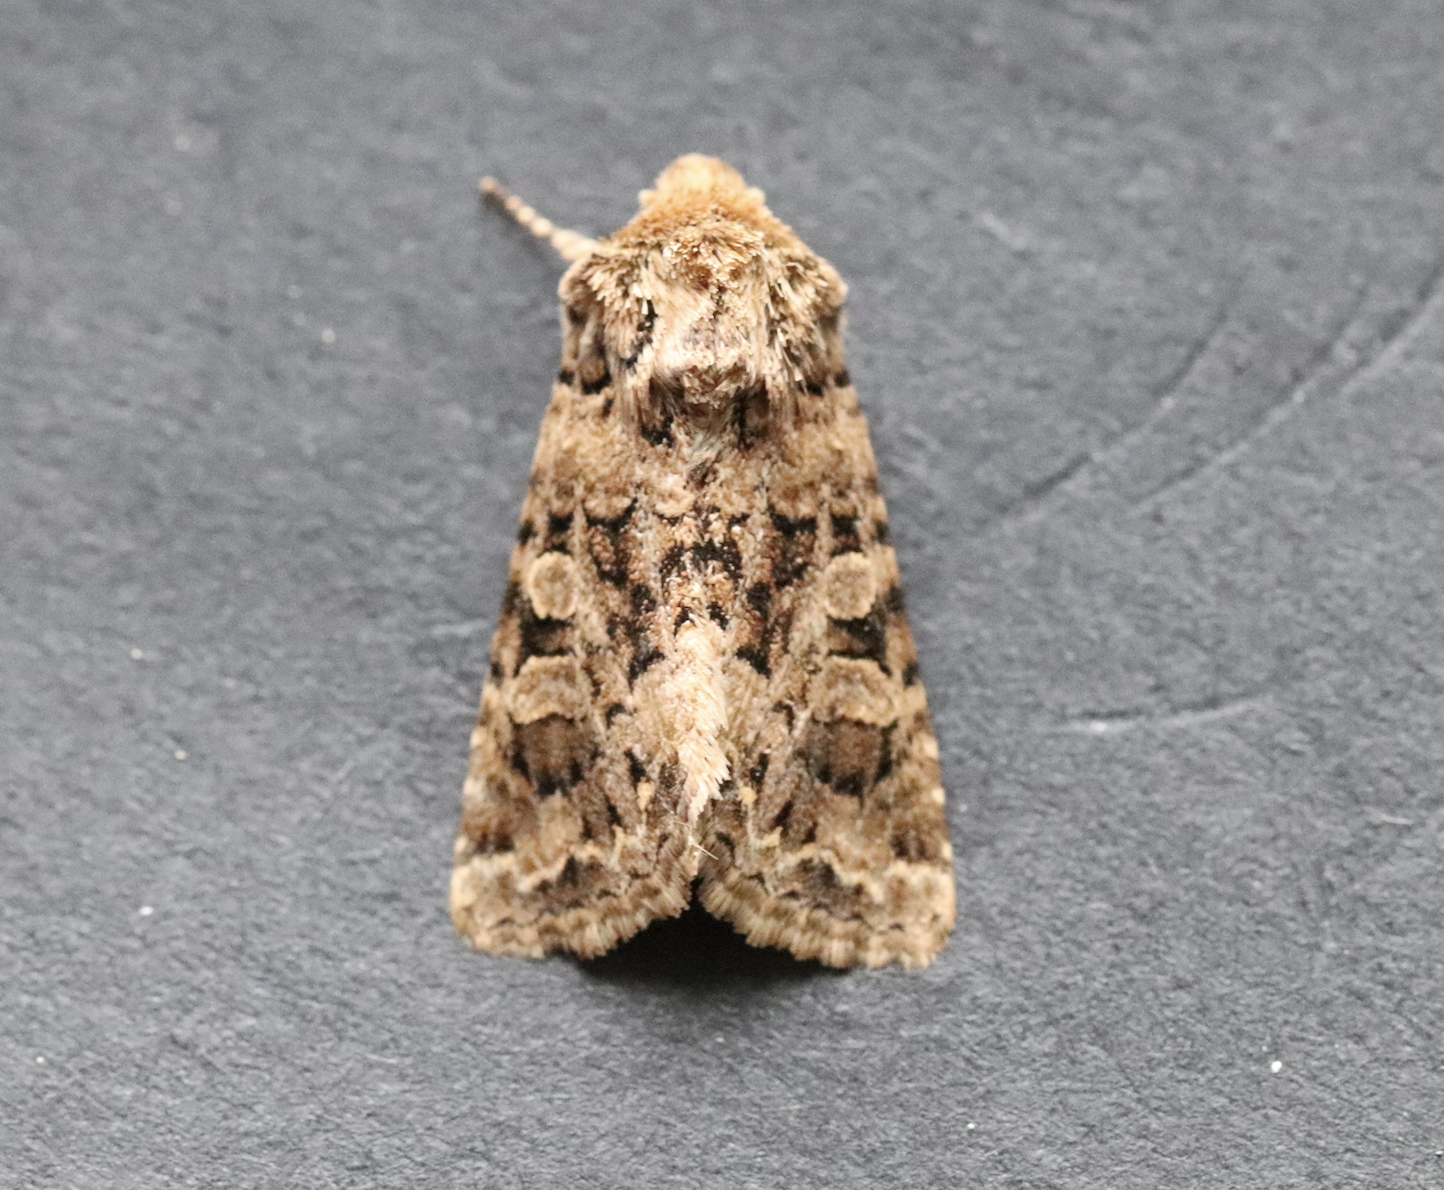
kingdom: Animalia
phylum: Arthropoda
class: Insecta
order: Lepidoptera
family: Noctuidae
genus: Hadena
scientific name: Hadena perplexa
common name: Tawny shears
